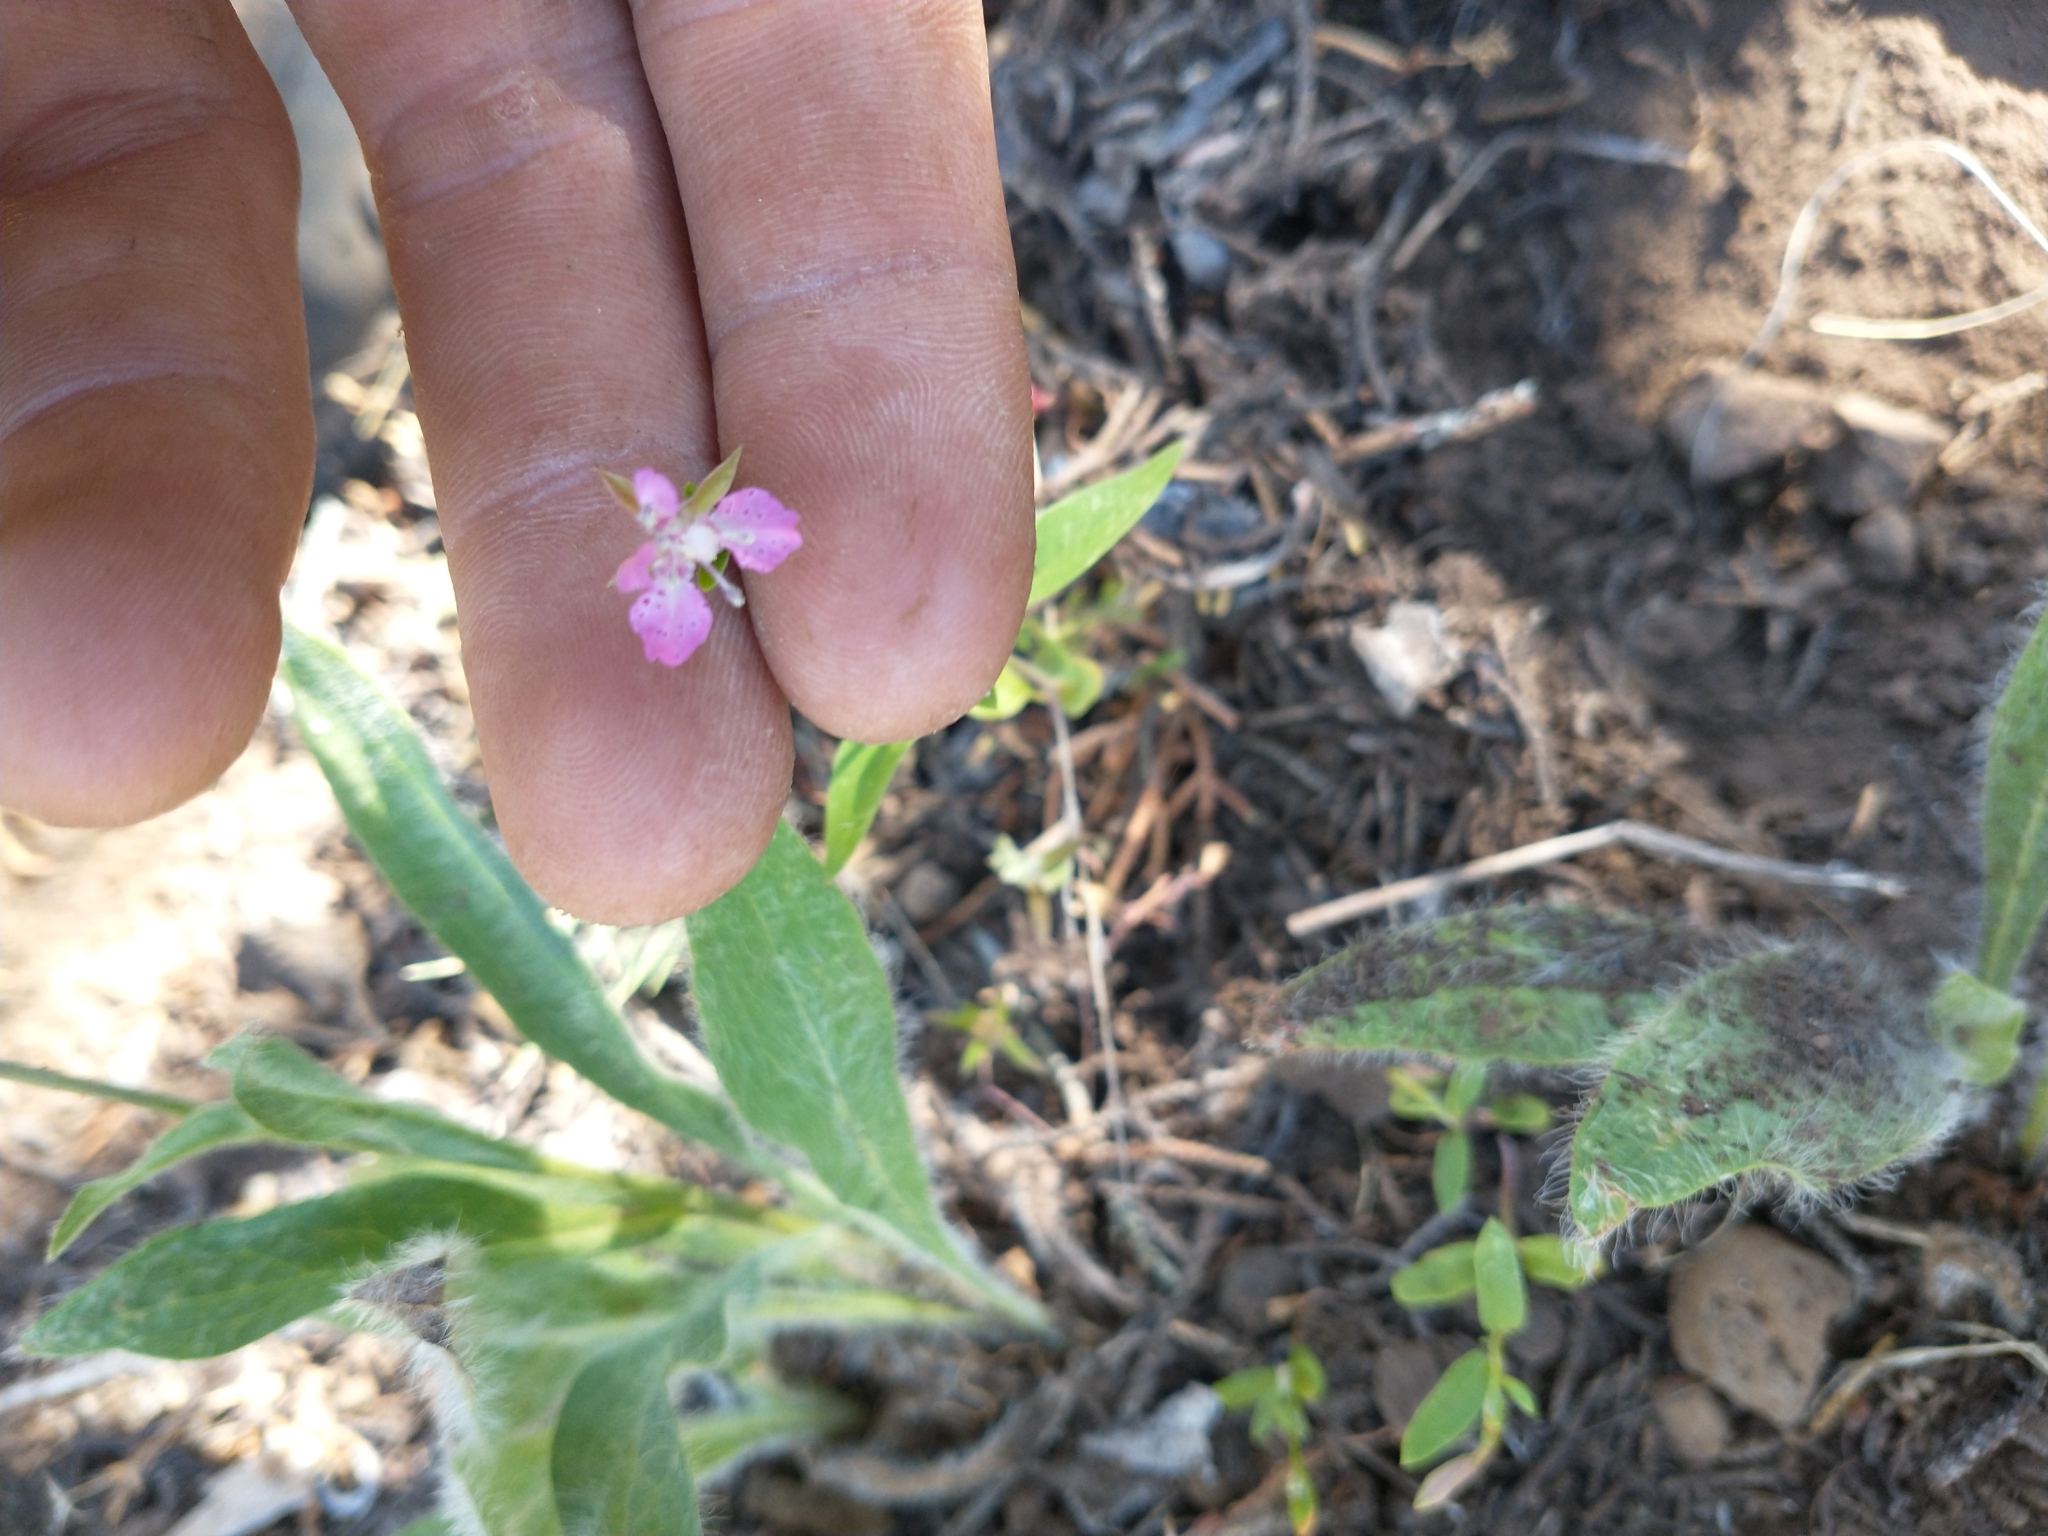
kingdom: Plantae
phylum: Tracheophyta
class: Magnoliopsida
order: Myrtales
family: Onagraceae
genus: Clarkia
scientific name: Clarkia rhomboidea
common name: Broadleaf clarkia
